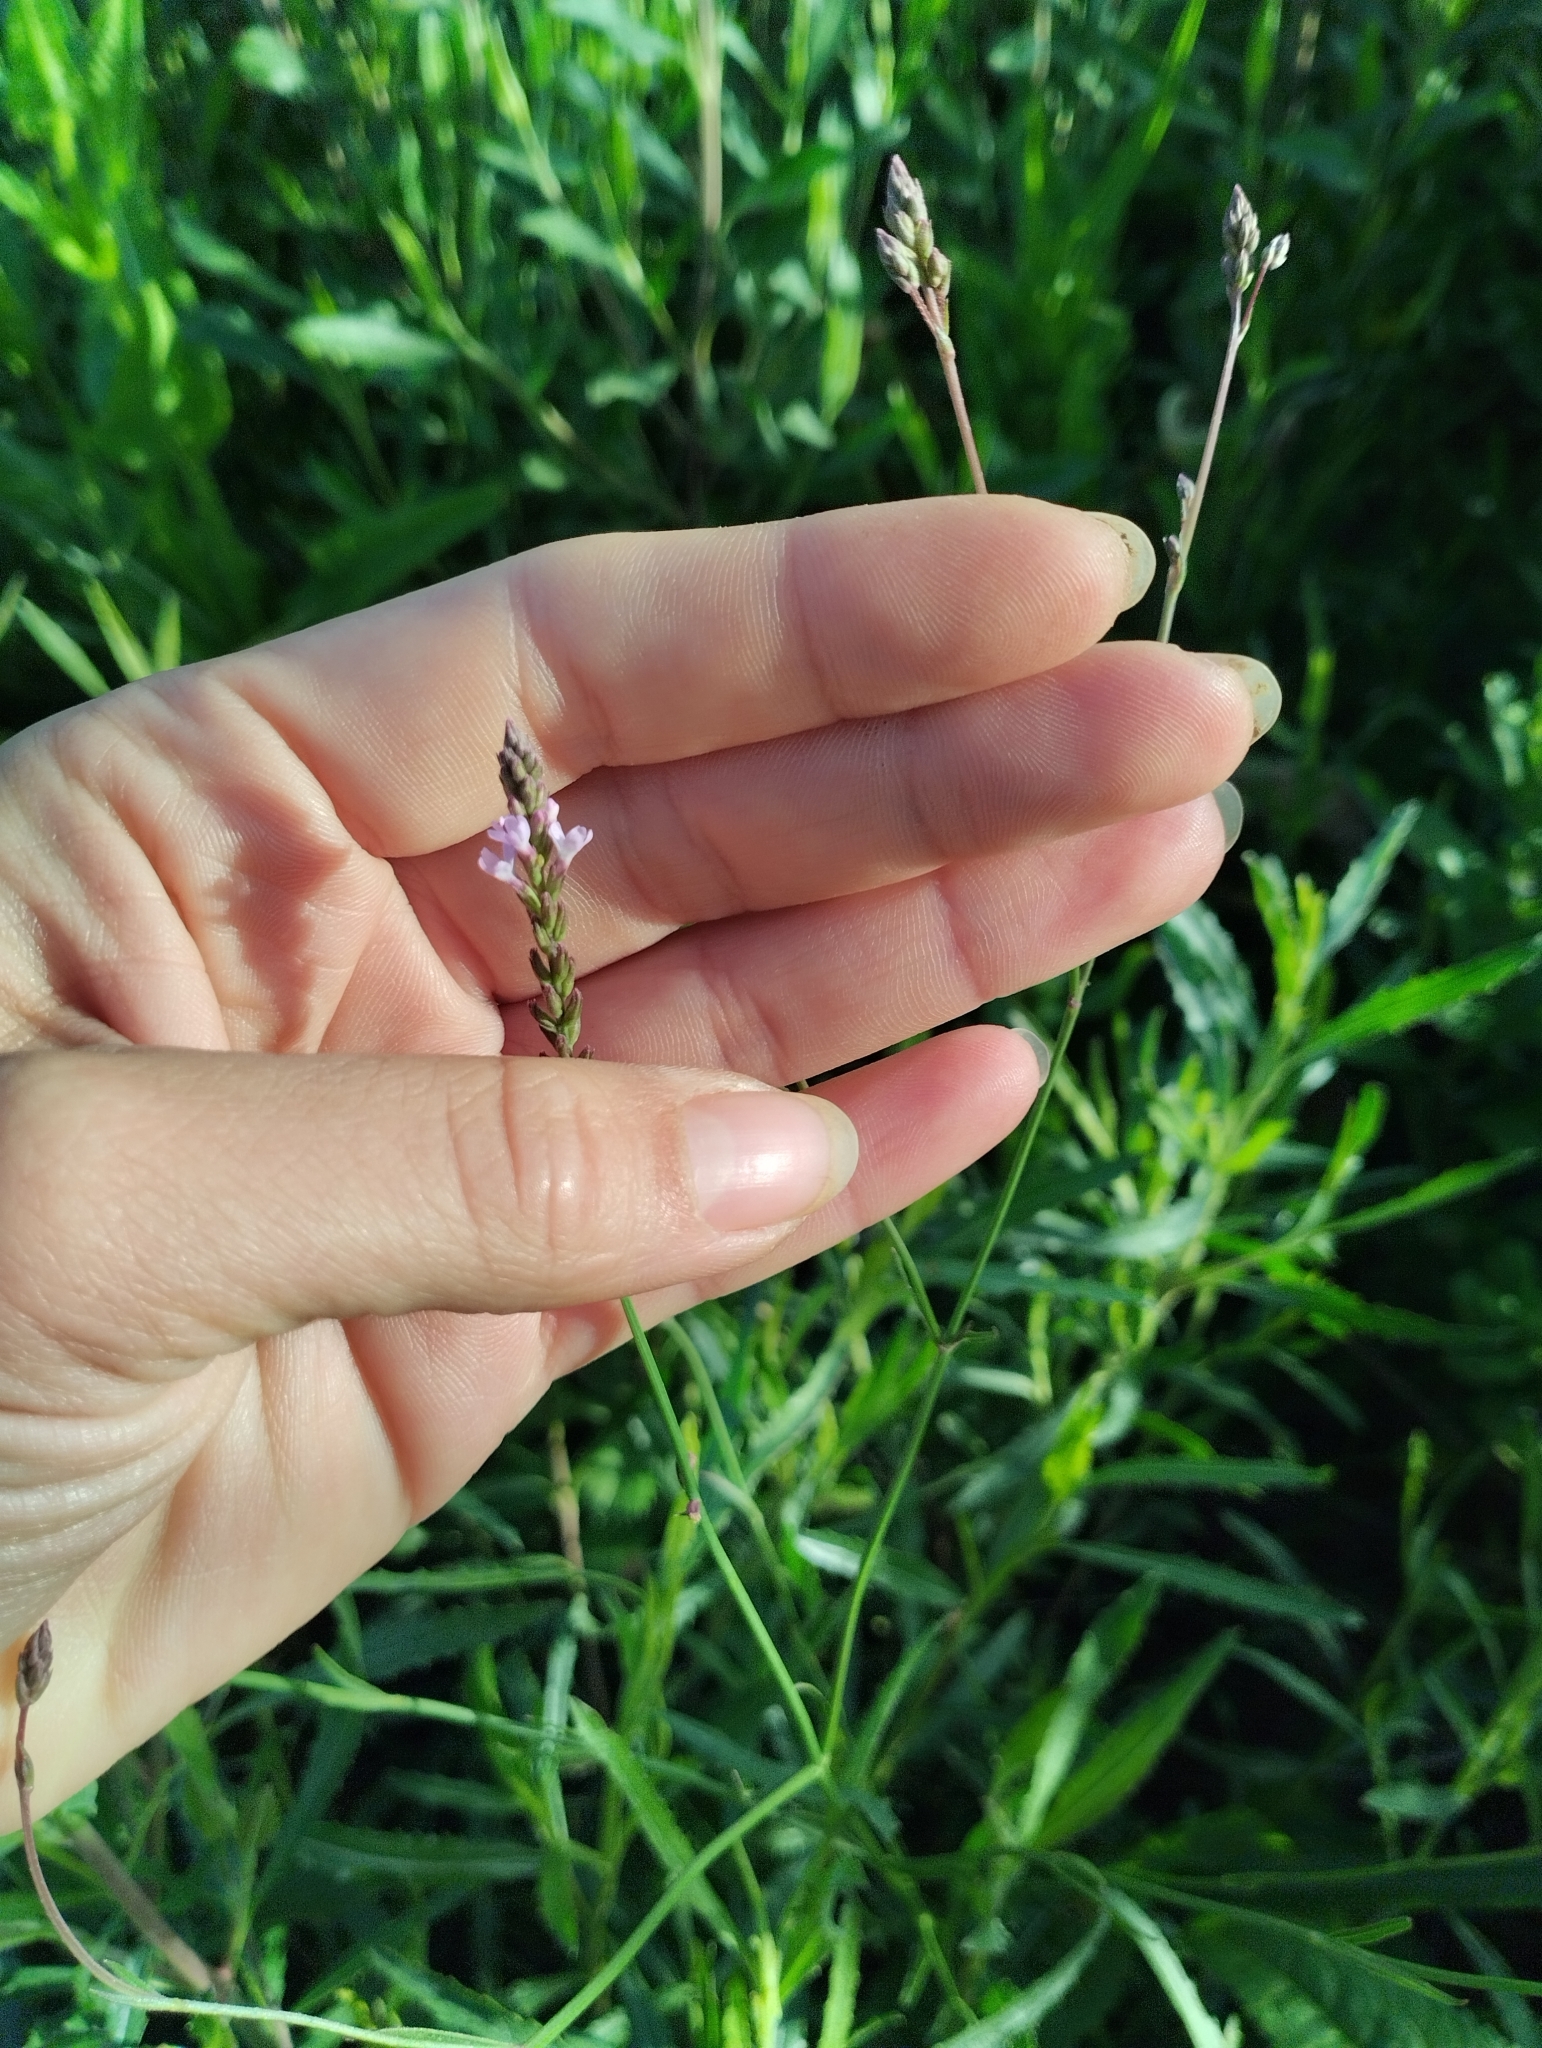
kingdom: Plantae
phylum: Tracheophyta
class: Magnoliopsida
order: Lamiales
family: Verbenaceae
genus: Verbena
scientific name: Verbena montevidensis
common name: Uruguayan vervain
